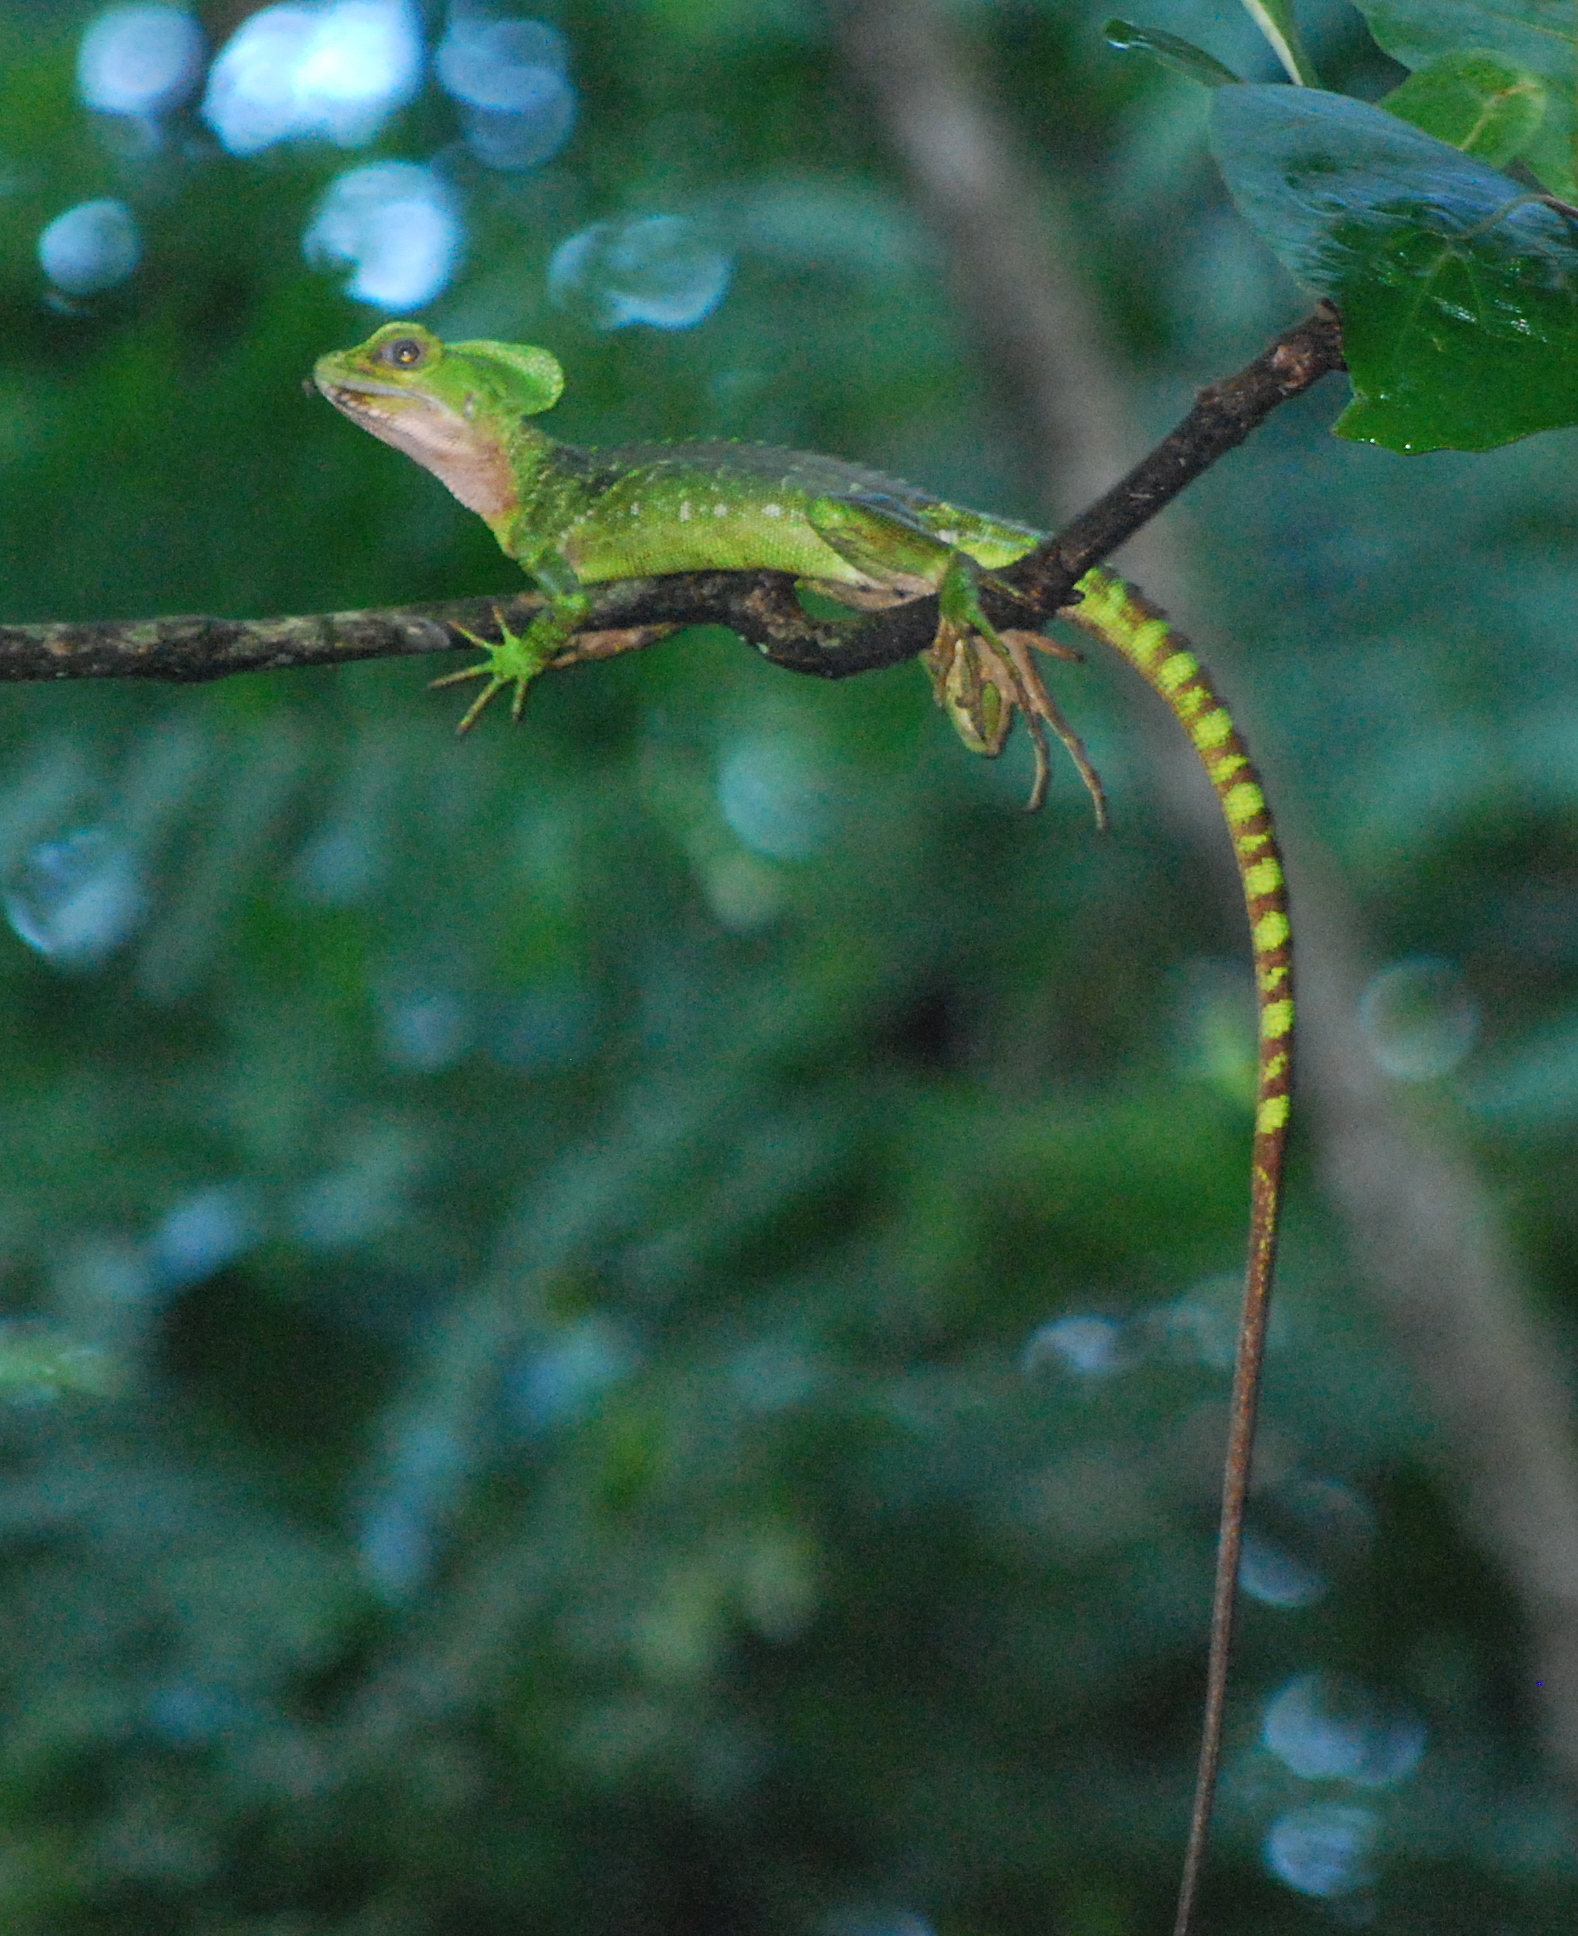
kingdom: Animalia
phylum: Chordata
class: Squamata
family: Corytophanidae
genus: Basiliscus
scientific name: Basiliscus galeritus
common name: Western basilisk
